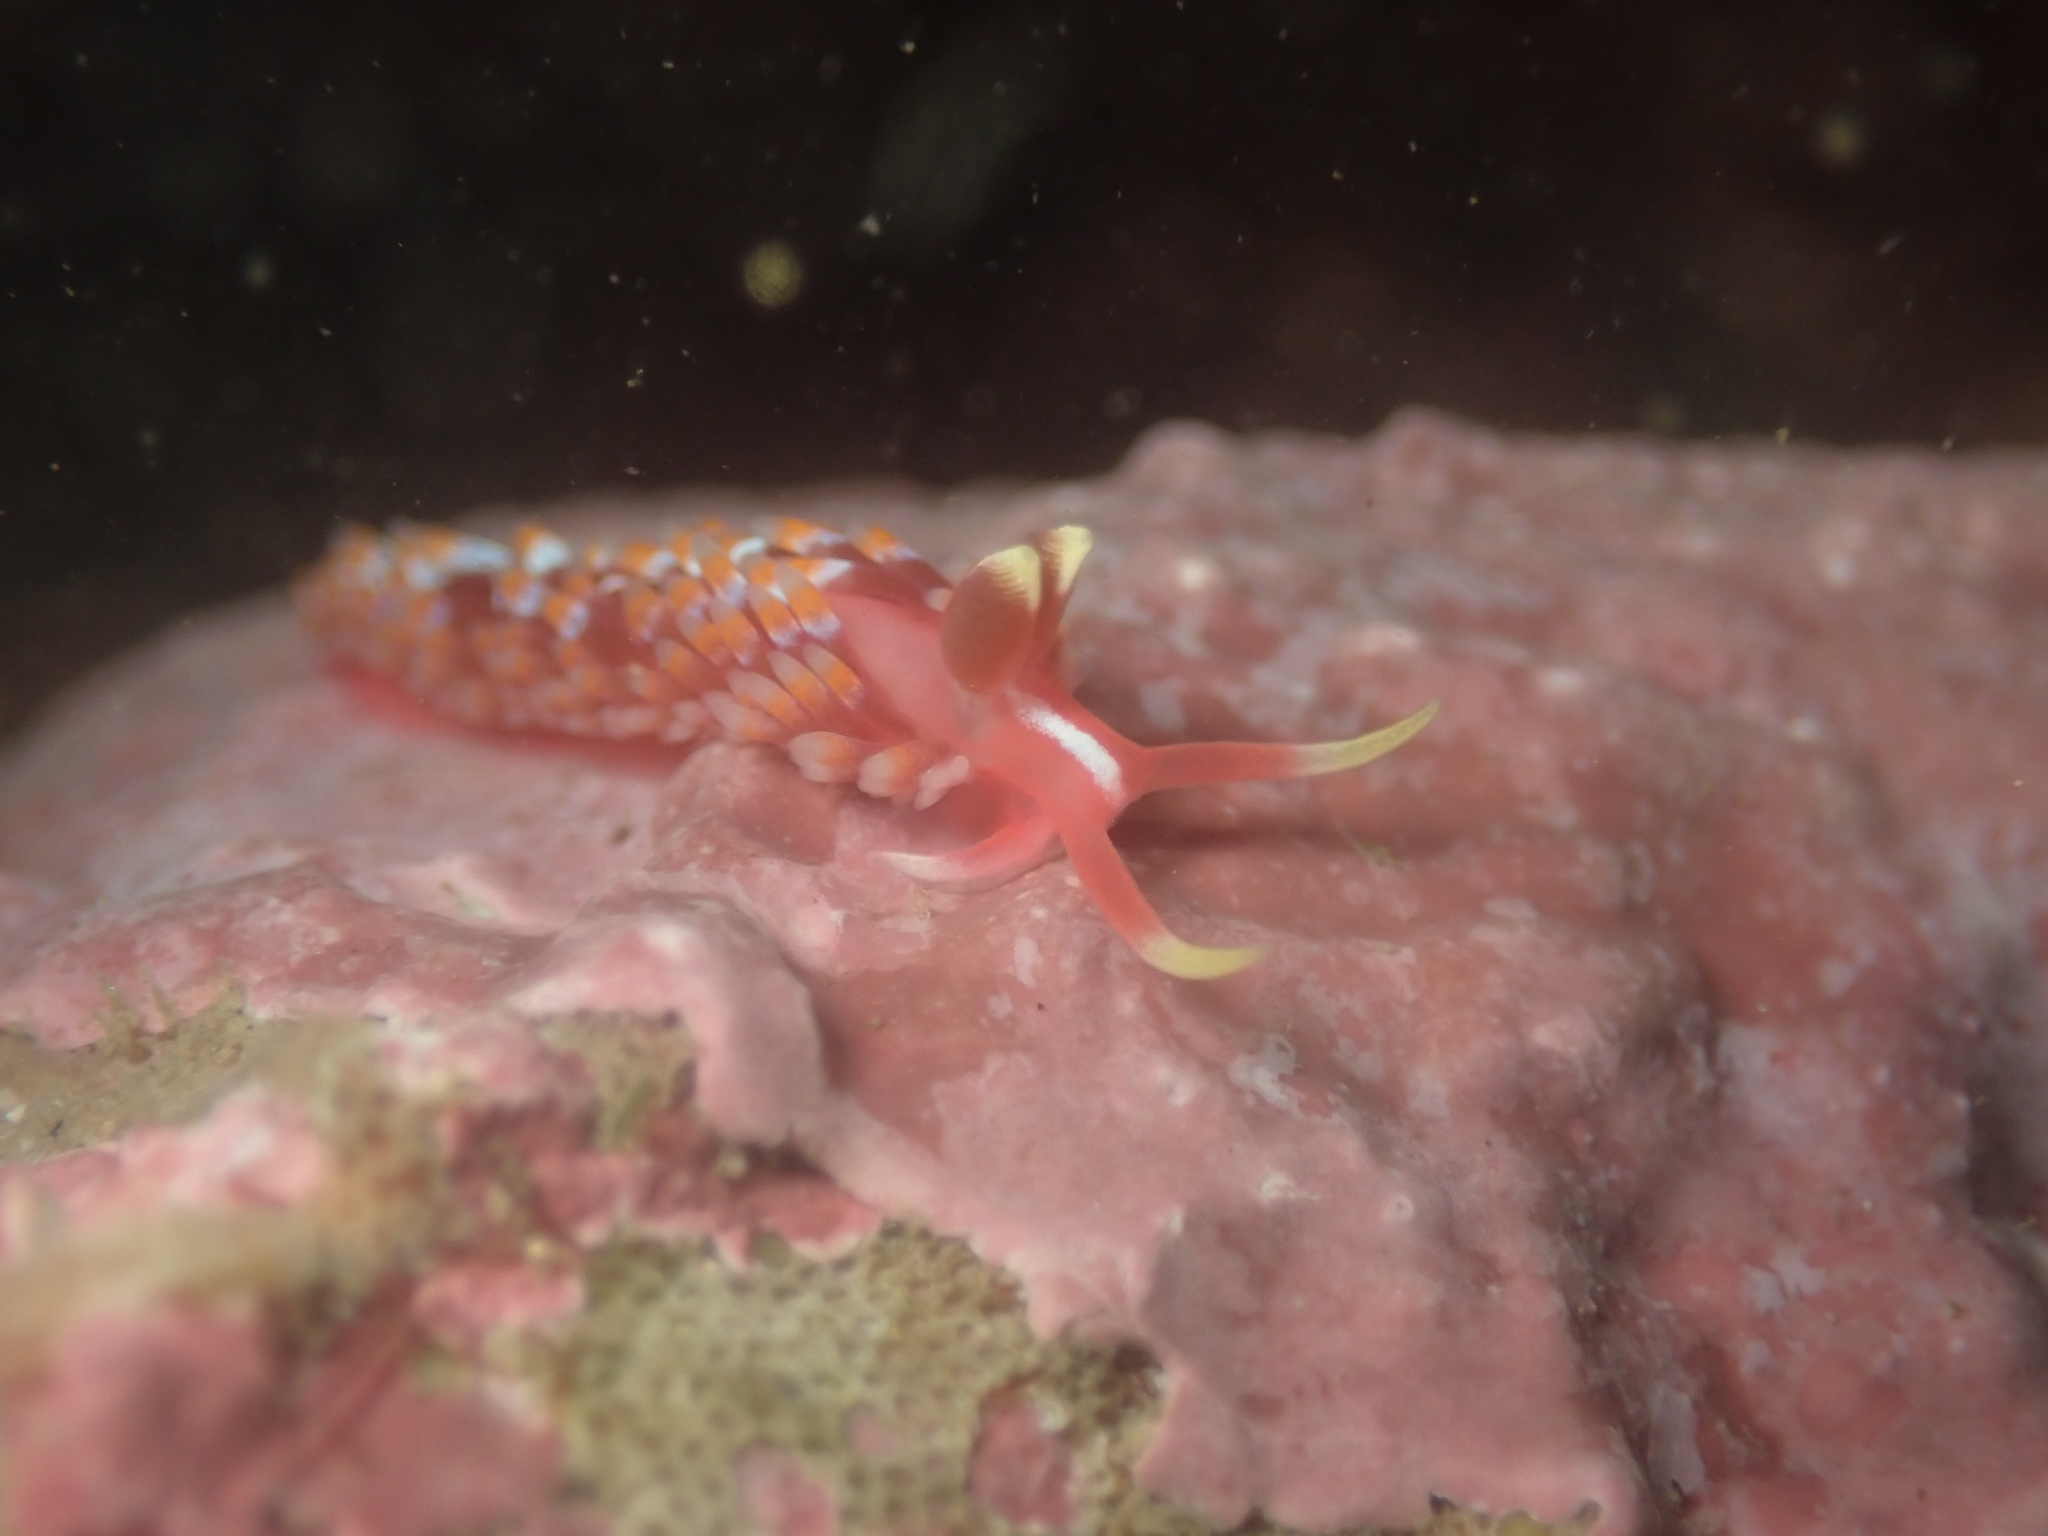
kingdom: Animalia
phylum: Mollusca
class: Gastropoda
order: Nudibranchia
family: Babakinidae
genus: Babakina
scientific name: Babakina festiva
